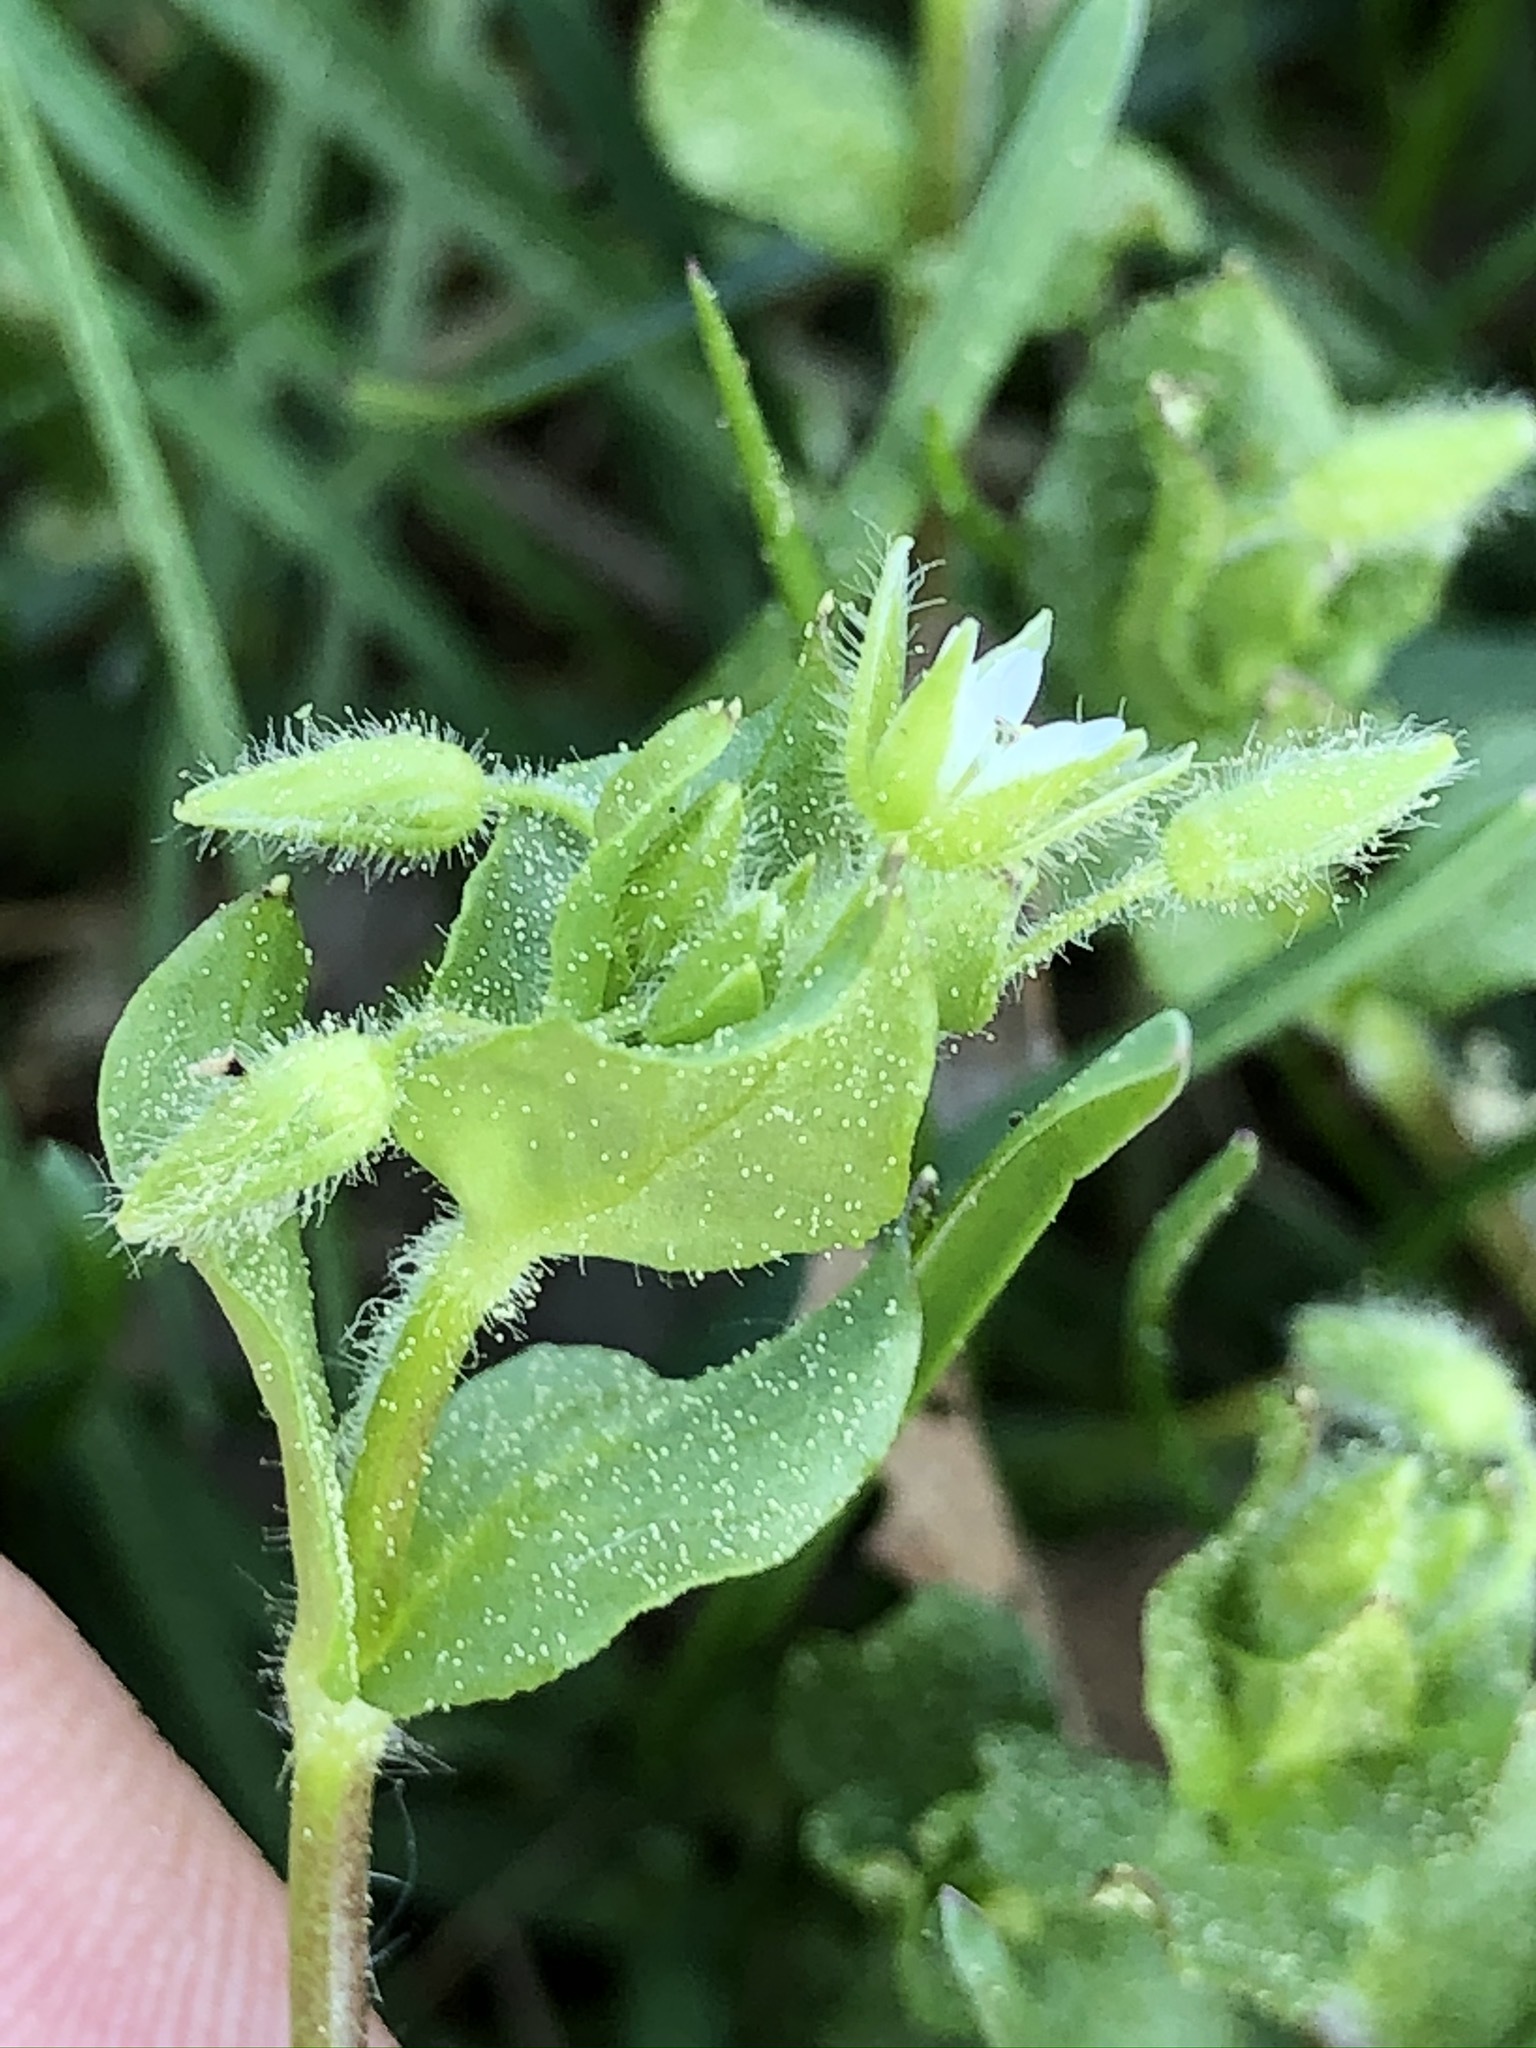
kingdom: Plantae
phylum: Tracheophyta
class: Magnoliopsida
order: Caryophyllales
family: Caryophyllaceae
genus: Stellaria
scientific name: Stellaria media
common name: Common chickweed
